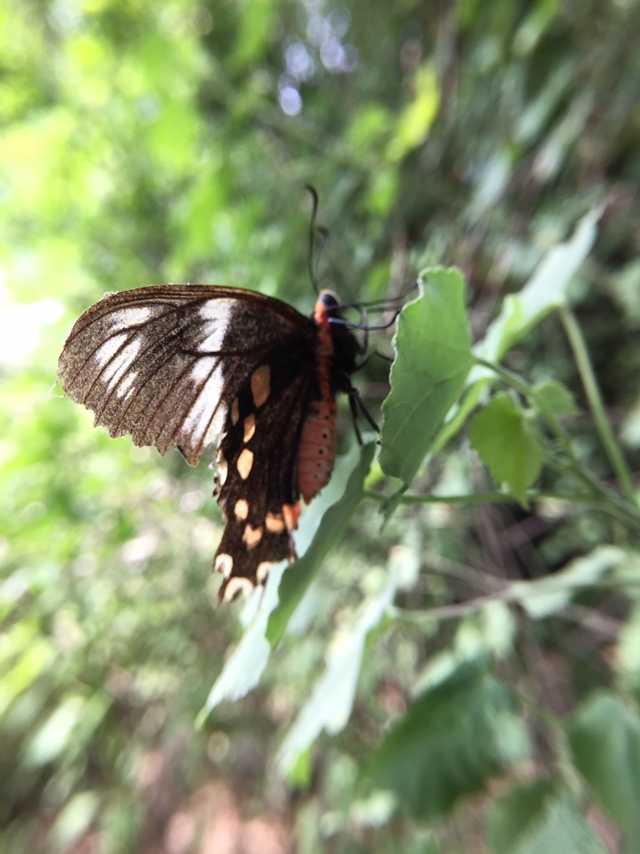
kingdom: Animalia
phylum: Arthropoda
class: Insecta
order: Lepidoptera
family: Papilionidae
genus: Pachliopta
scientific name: Pachliopta hector
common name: Crimson rose
